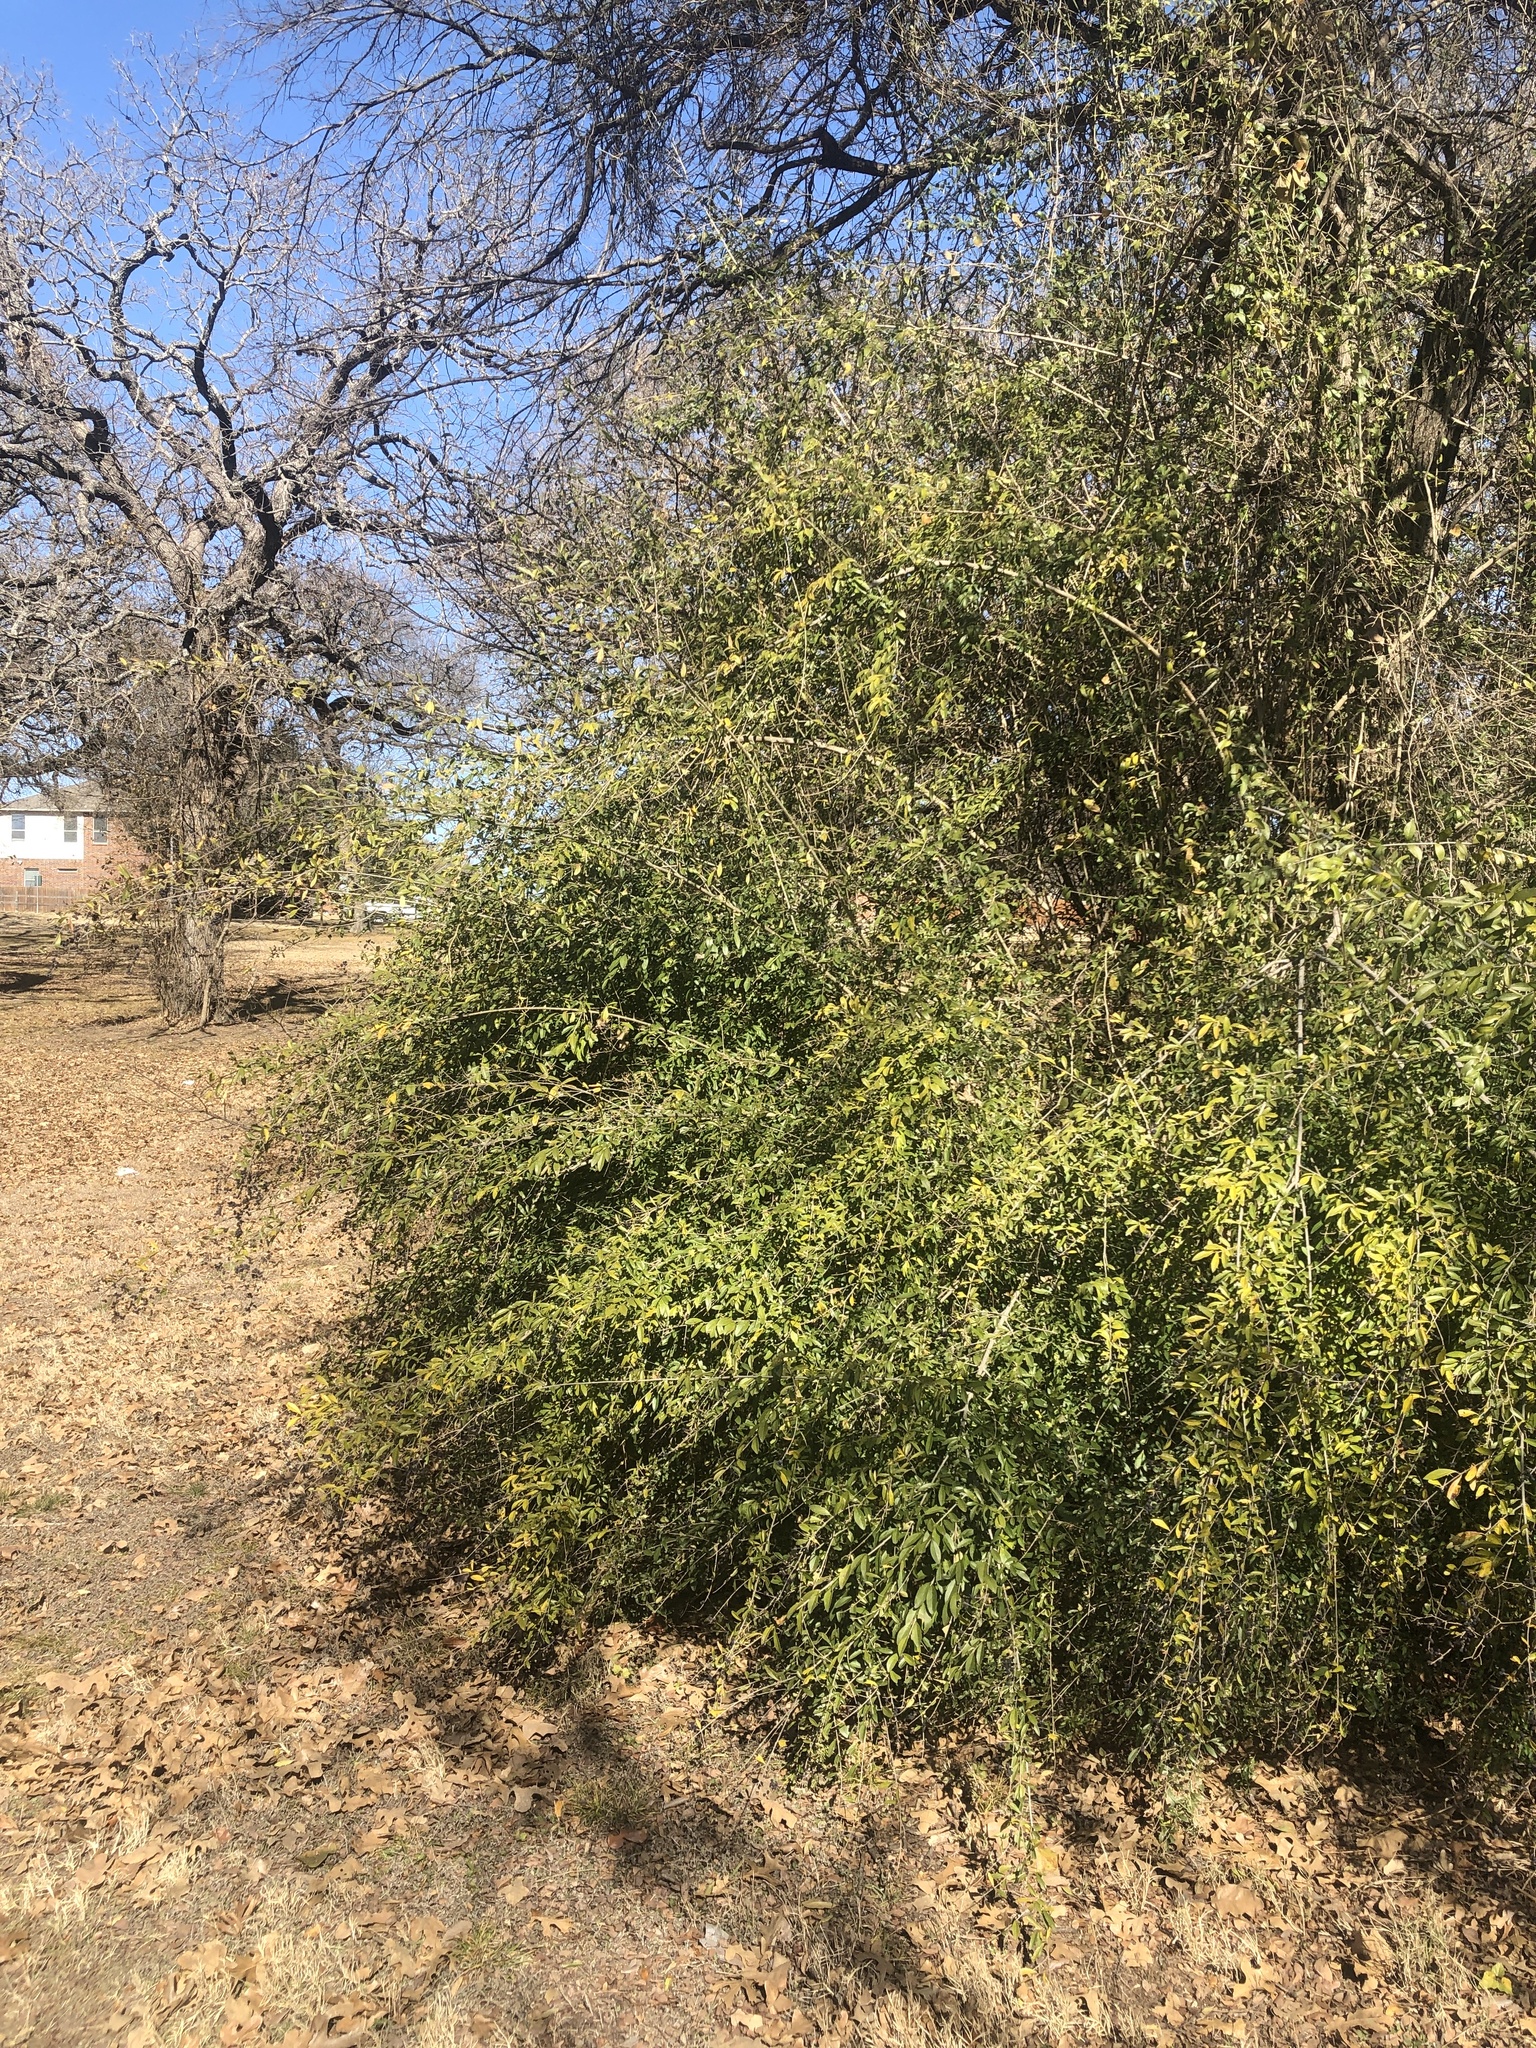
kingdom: Plantae
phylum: Tracheophyta
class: Magnoliopsida
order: Lamiales
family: Oleaceae
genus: Ligustrum
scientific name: Ligustrum quihoui
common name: Waxyleaf privet
